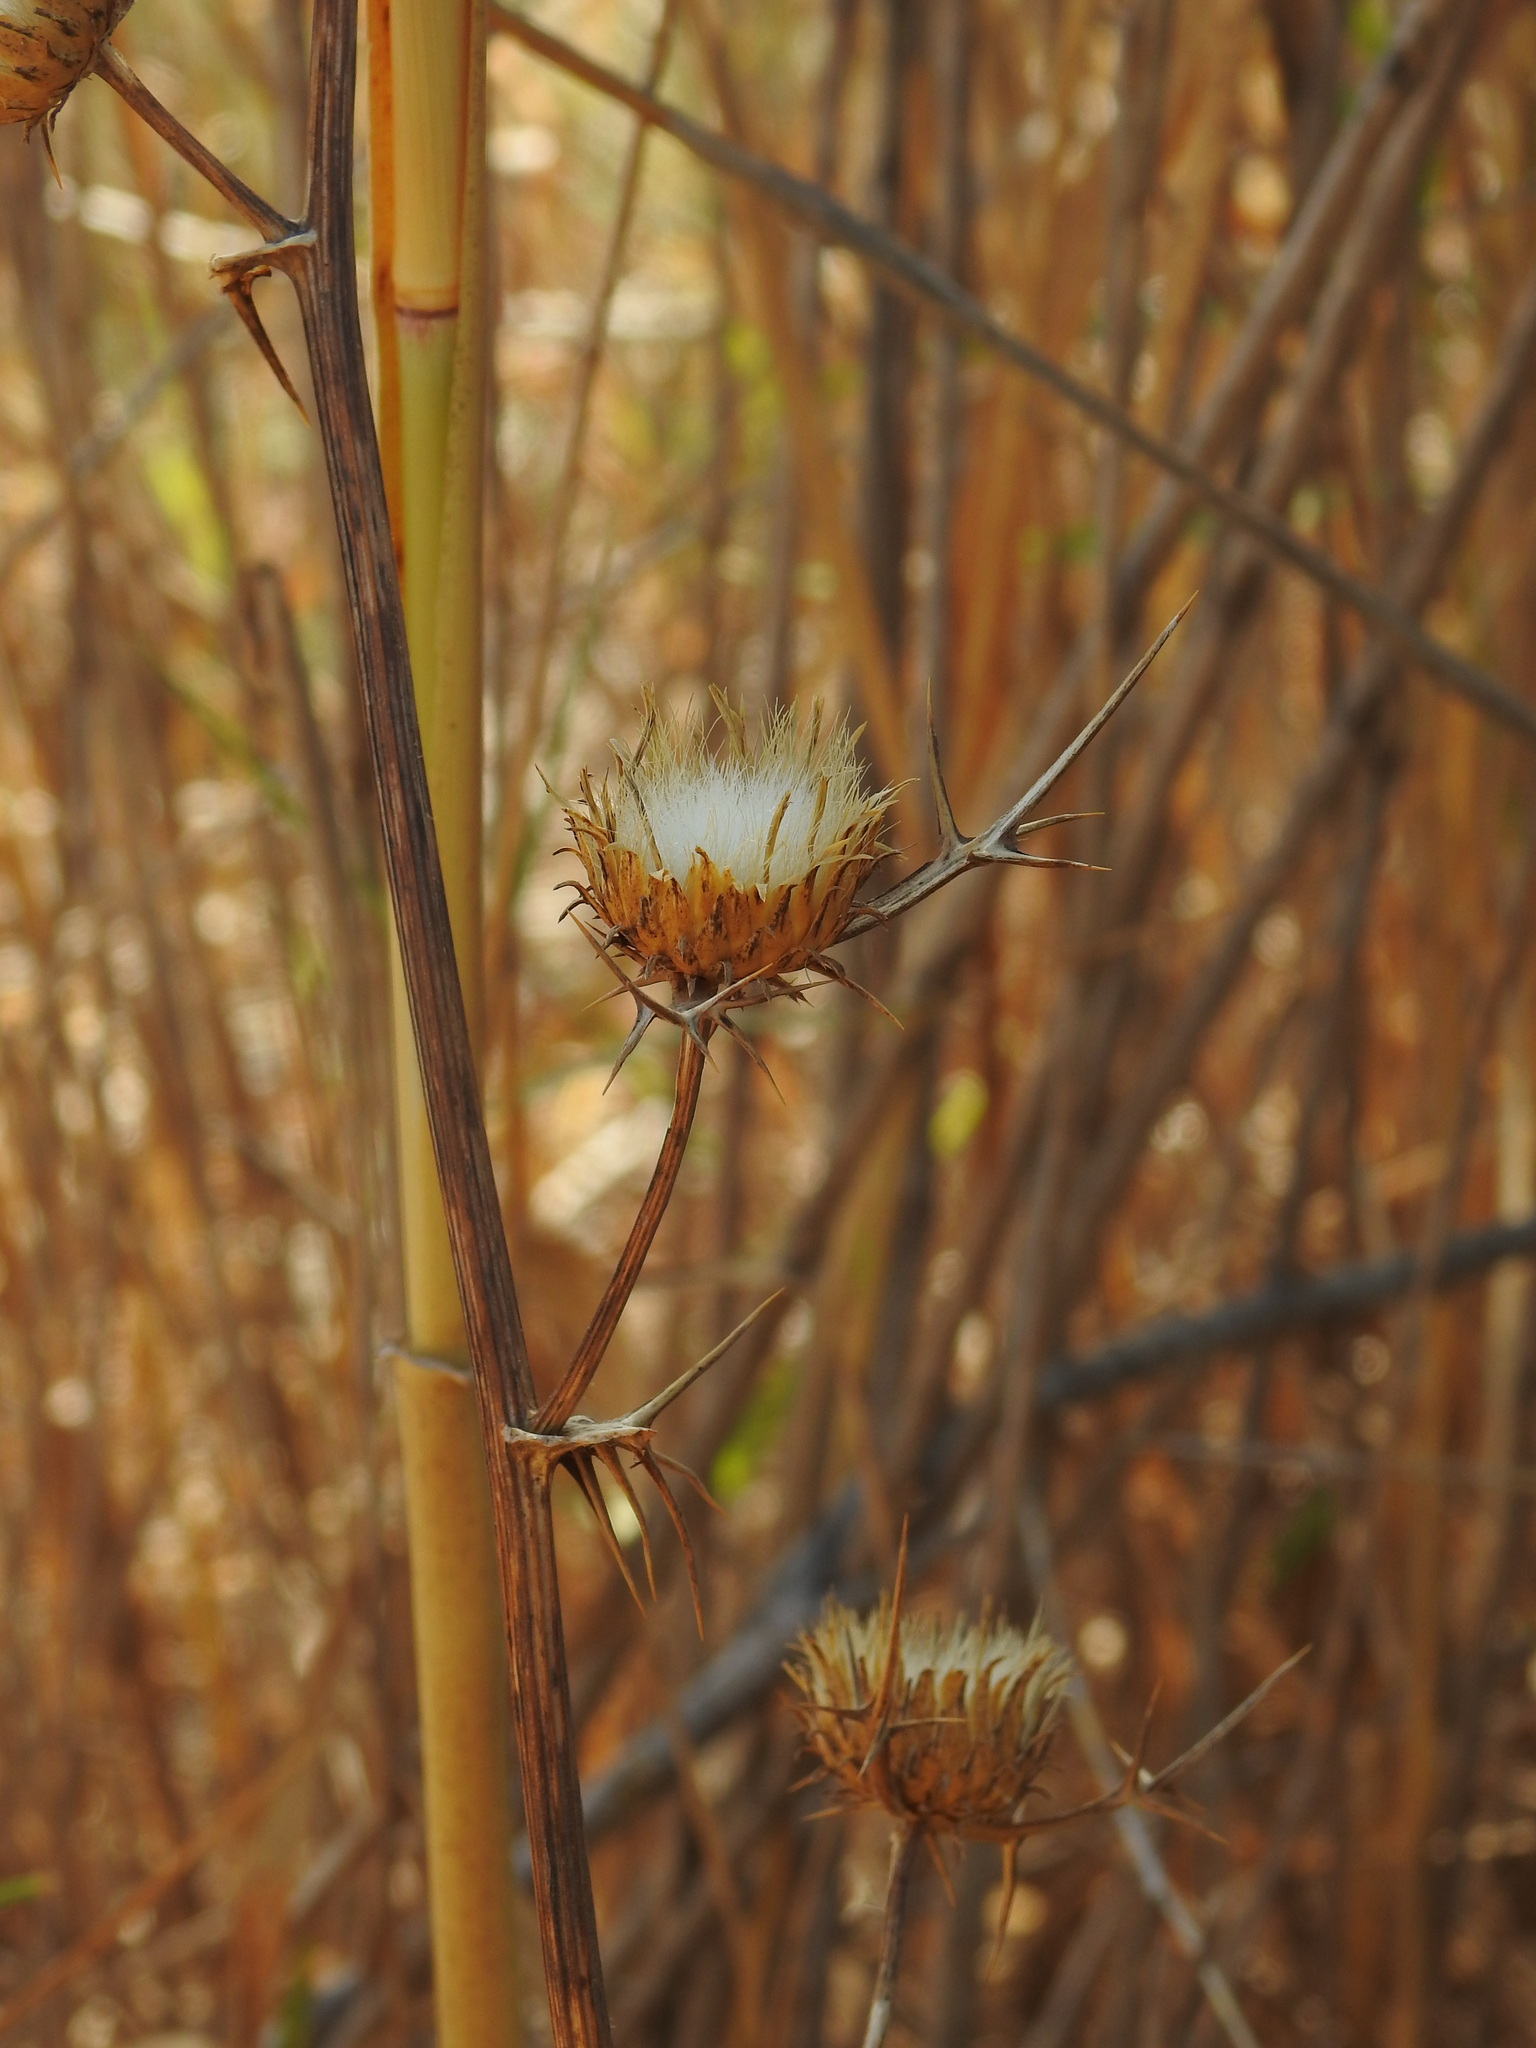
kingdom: Plantae
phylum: Tracheophyta
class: Magnoliopsida
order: Asterales
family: Asteraceae
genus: Notobasis
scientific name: Notobasis syriaca
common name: Syrian thistle
